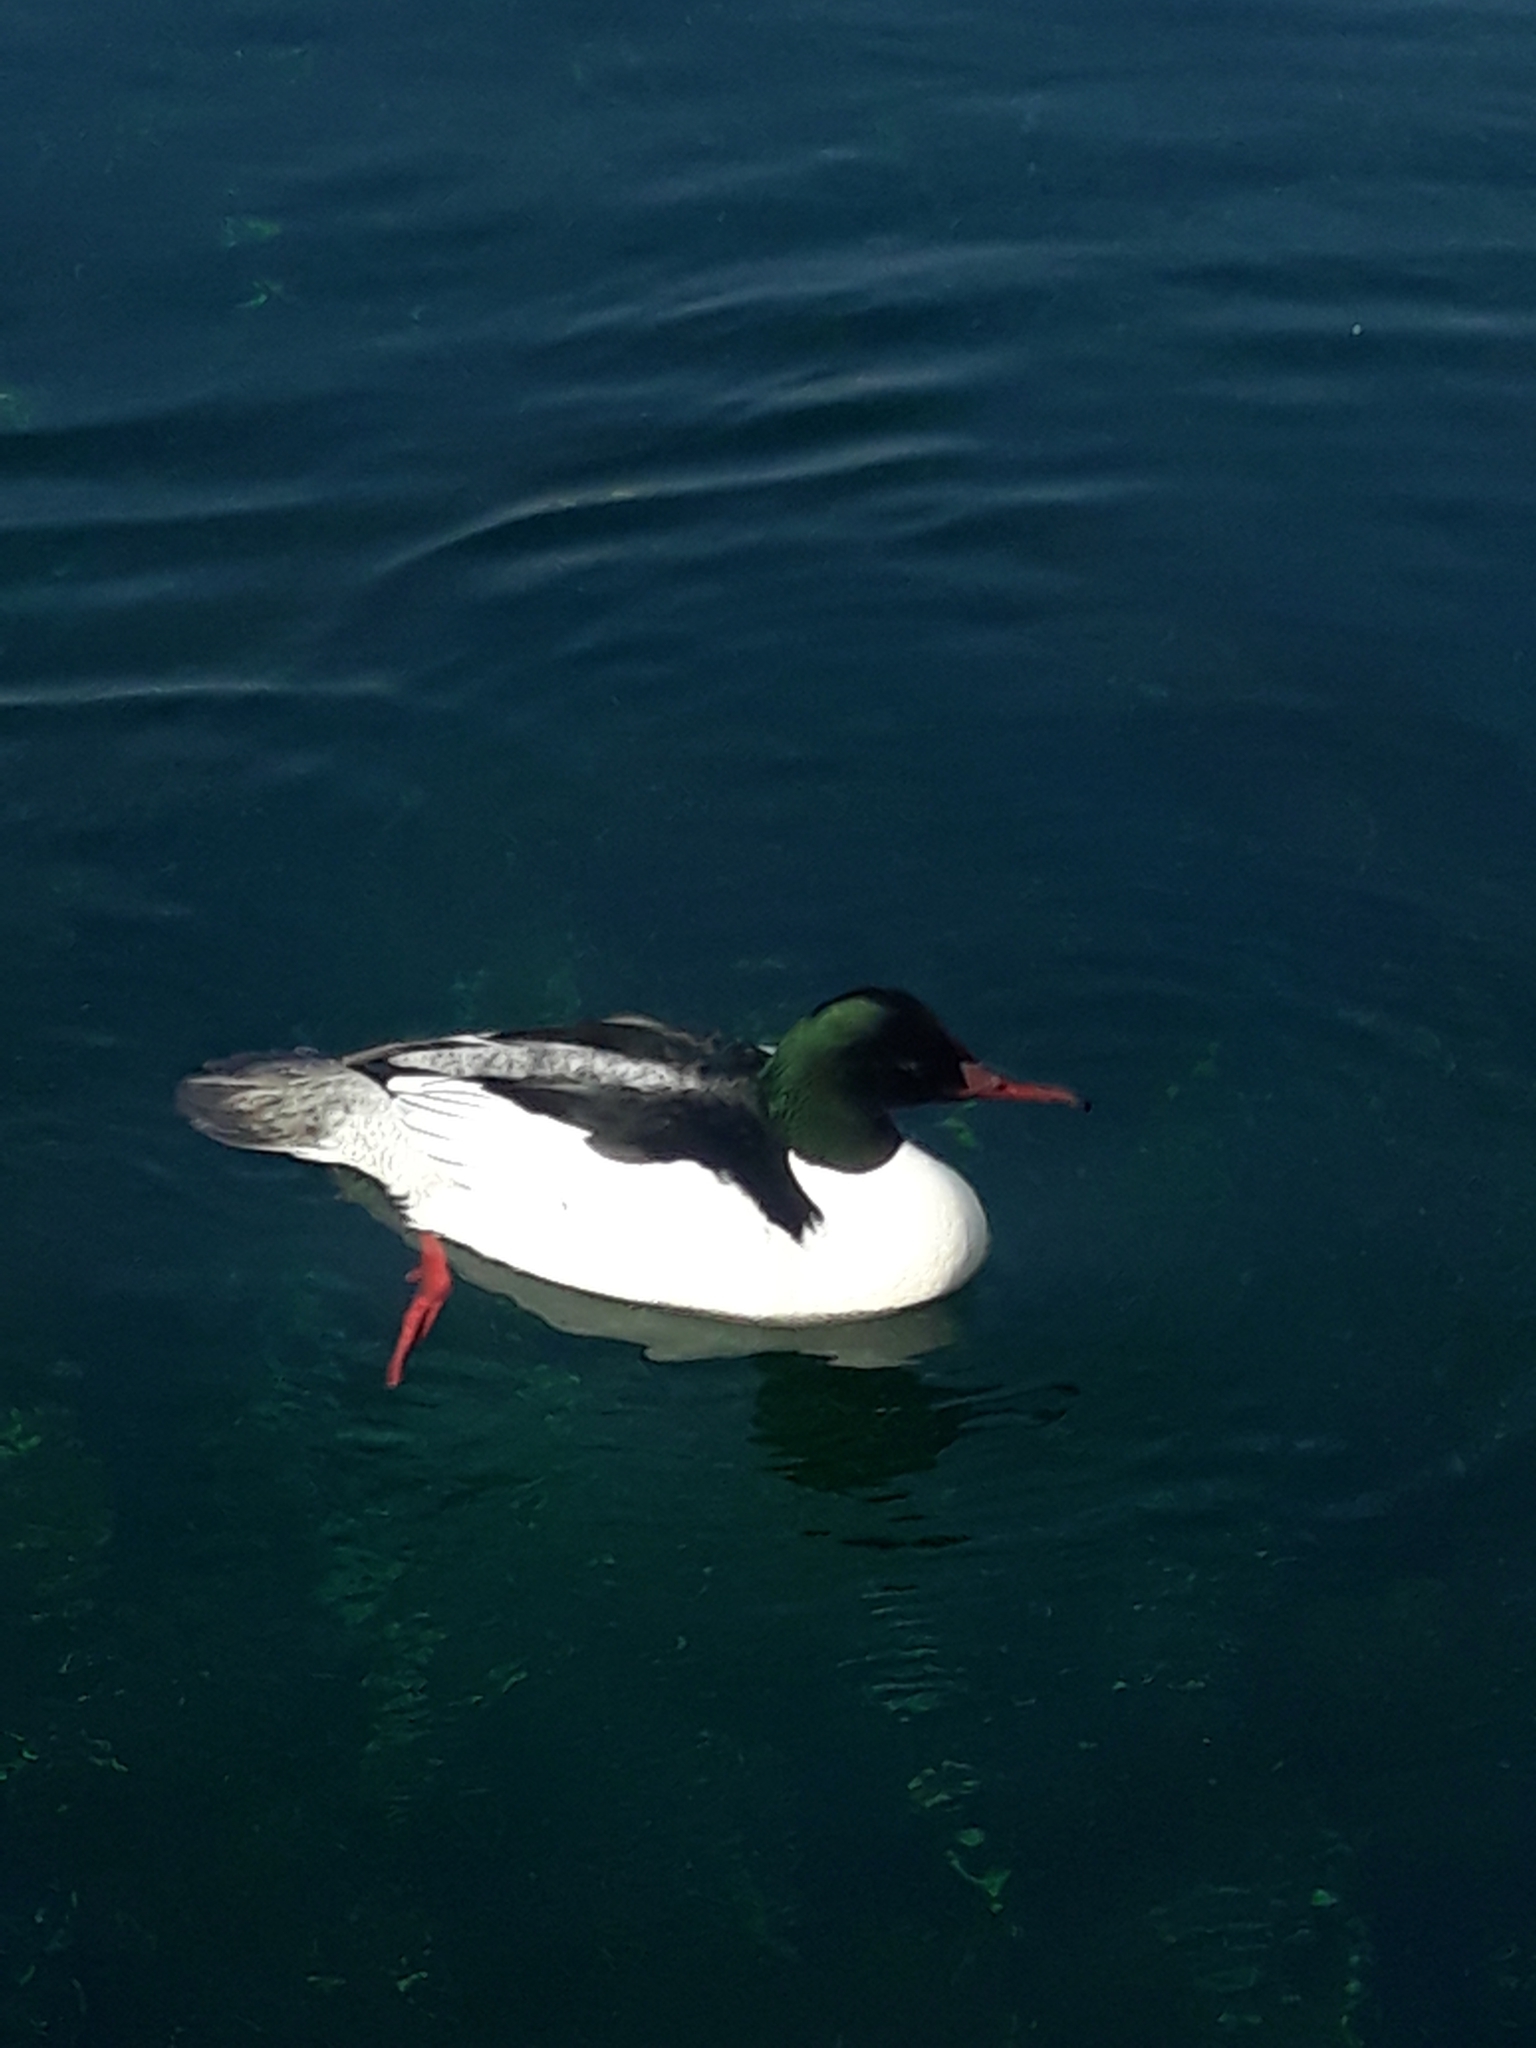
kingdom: Animalia
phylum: Chordata
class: Aves
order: Anseriformes
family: Anatidae
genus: Mergus
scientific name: Mergus merganser
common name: Common merganser
